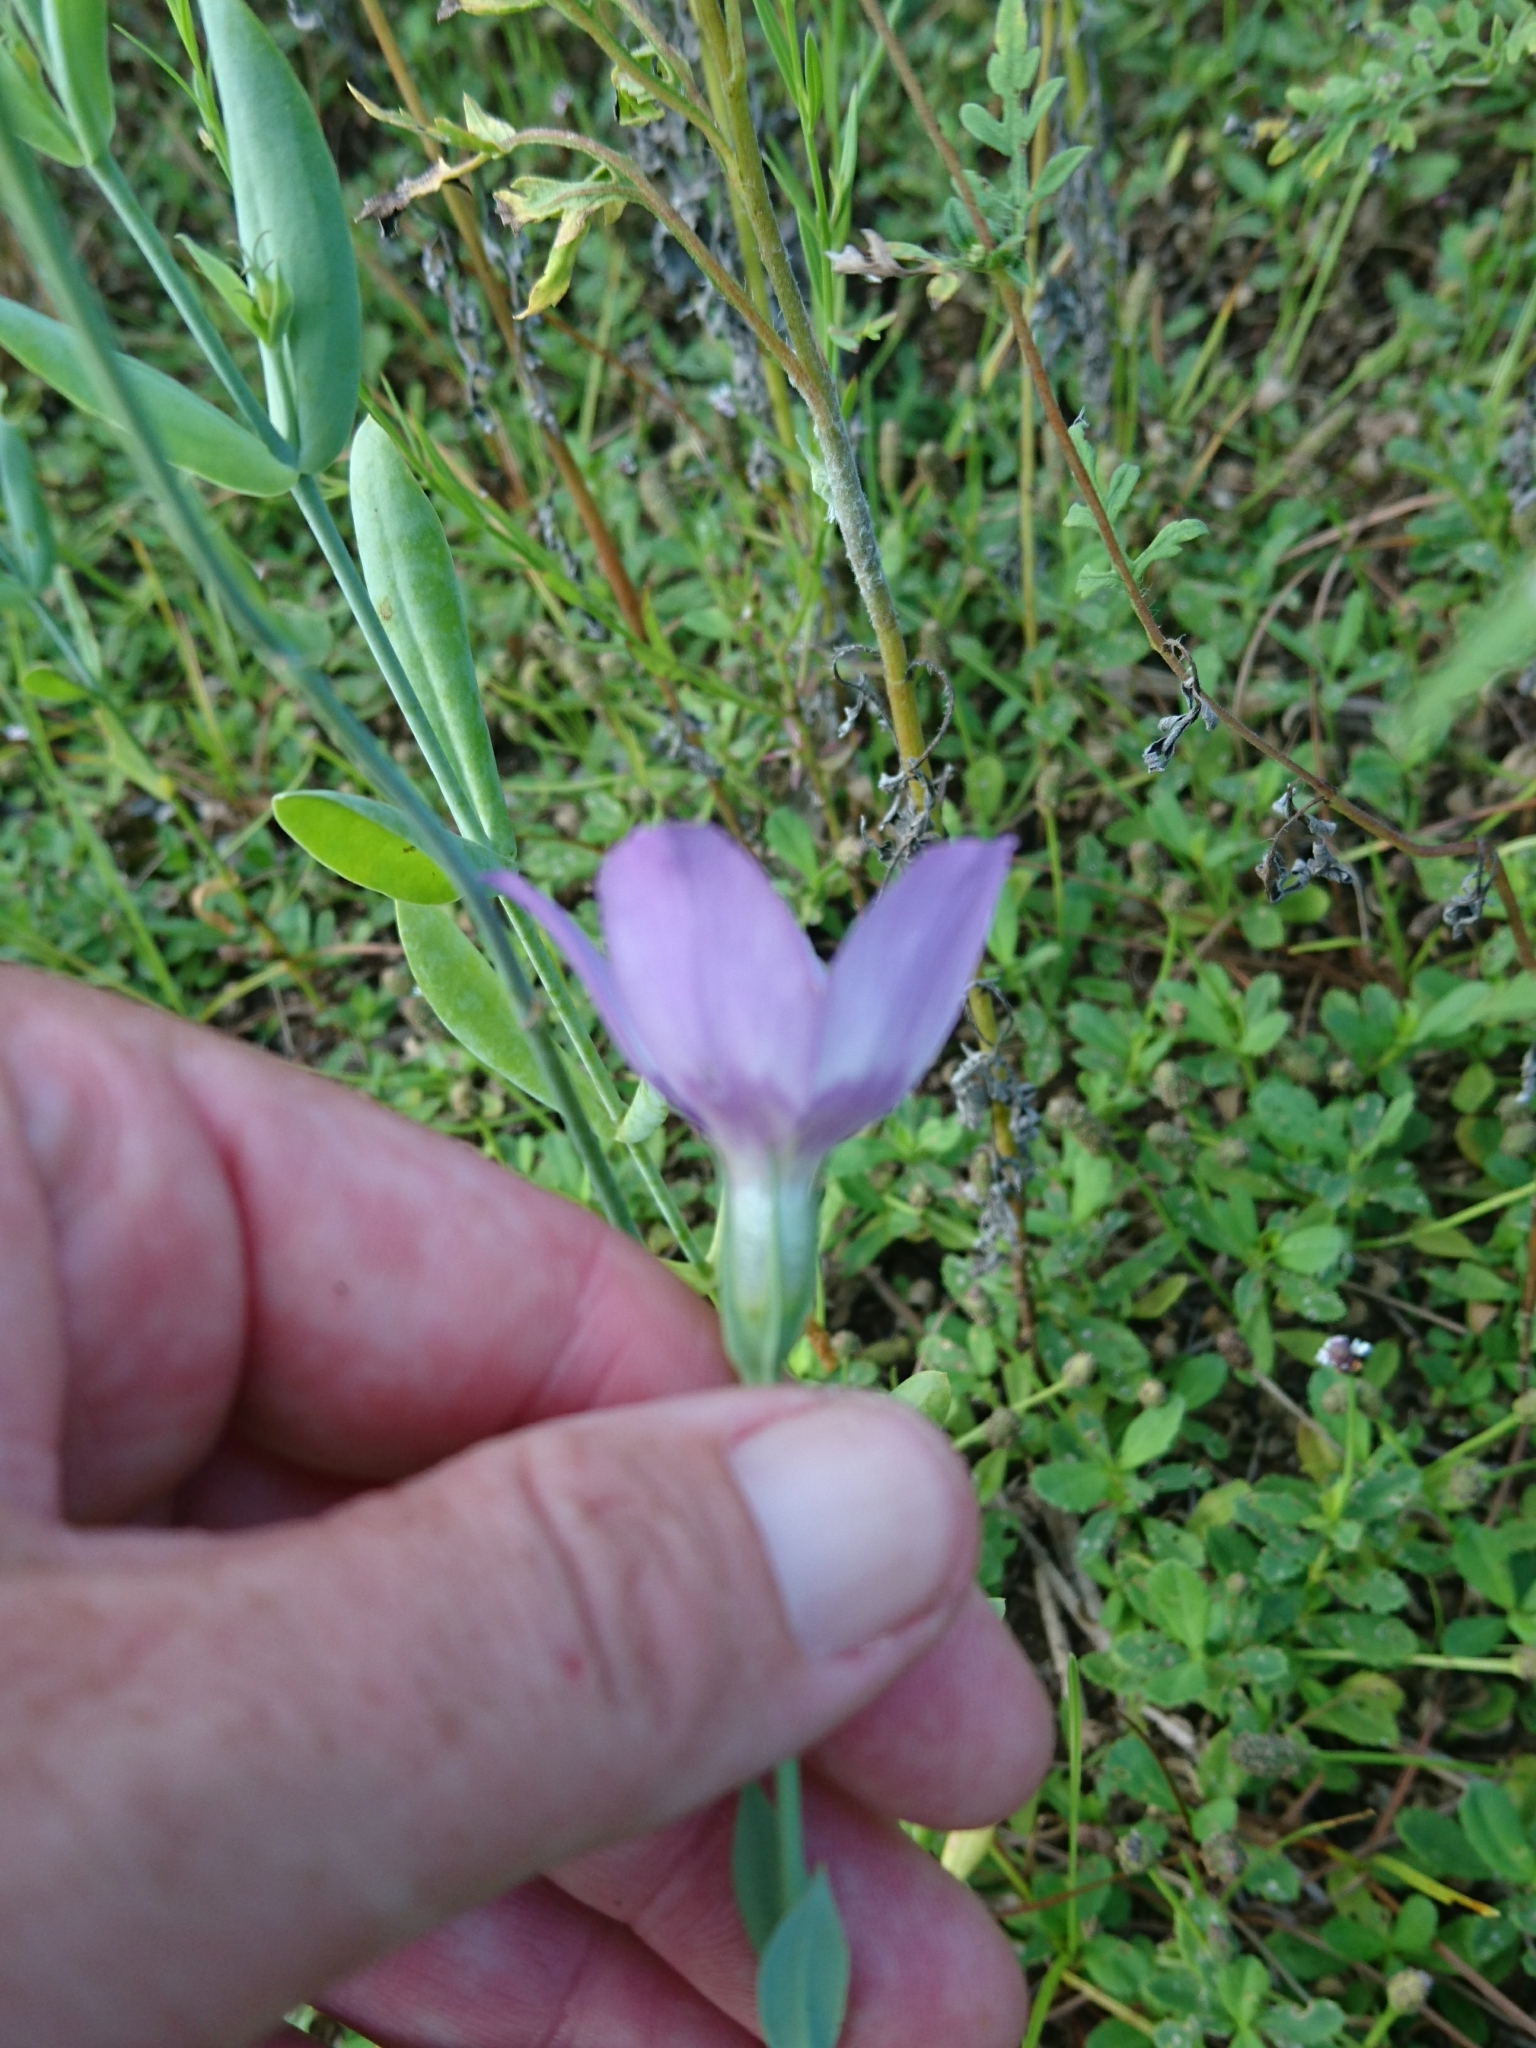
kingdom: Plantae
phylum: Tracheophyta
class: Magnoliopsida
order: Gentianales
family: Gentianaceae
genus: Eustoma
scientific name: Eustoma exaltatum
